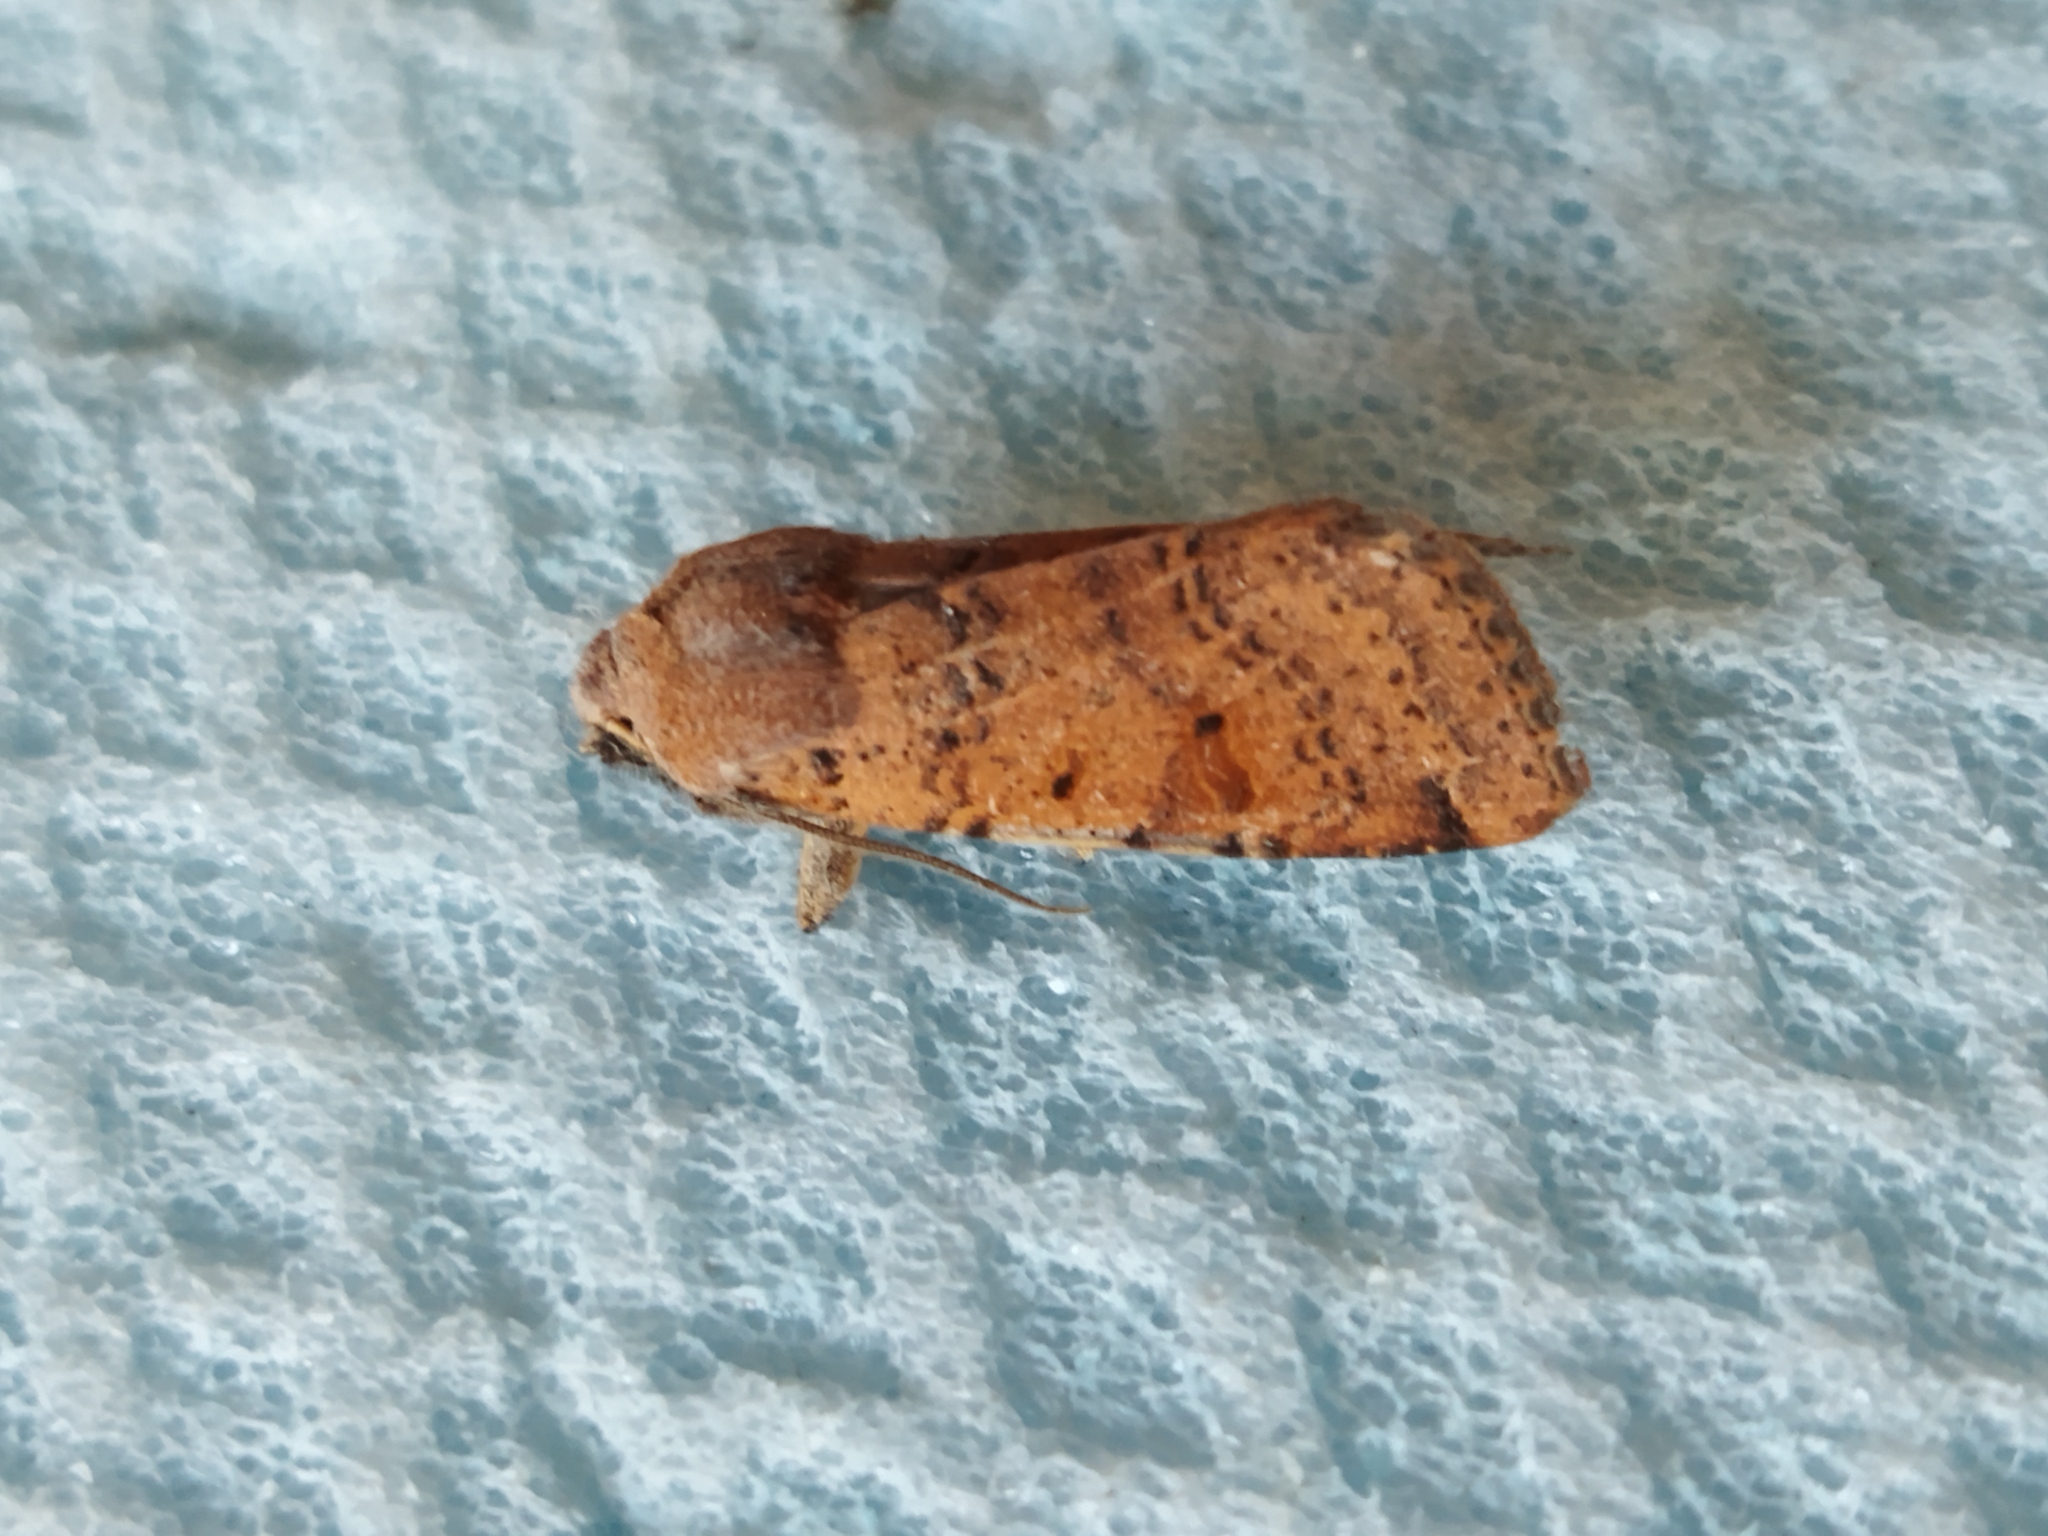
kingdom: Animalia
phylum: Arthropoda
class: Insecta
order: Lepidoptera
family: Noctuidae
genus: Agrochola
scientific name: Agrochola lychnidis
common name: Beaded chestnut
